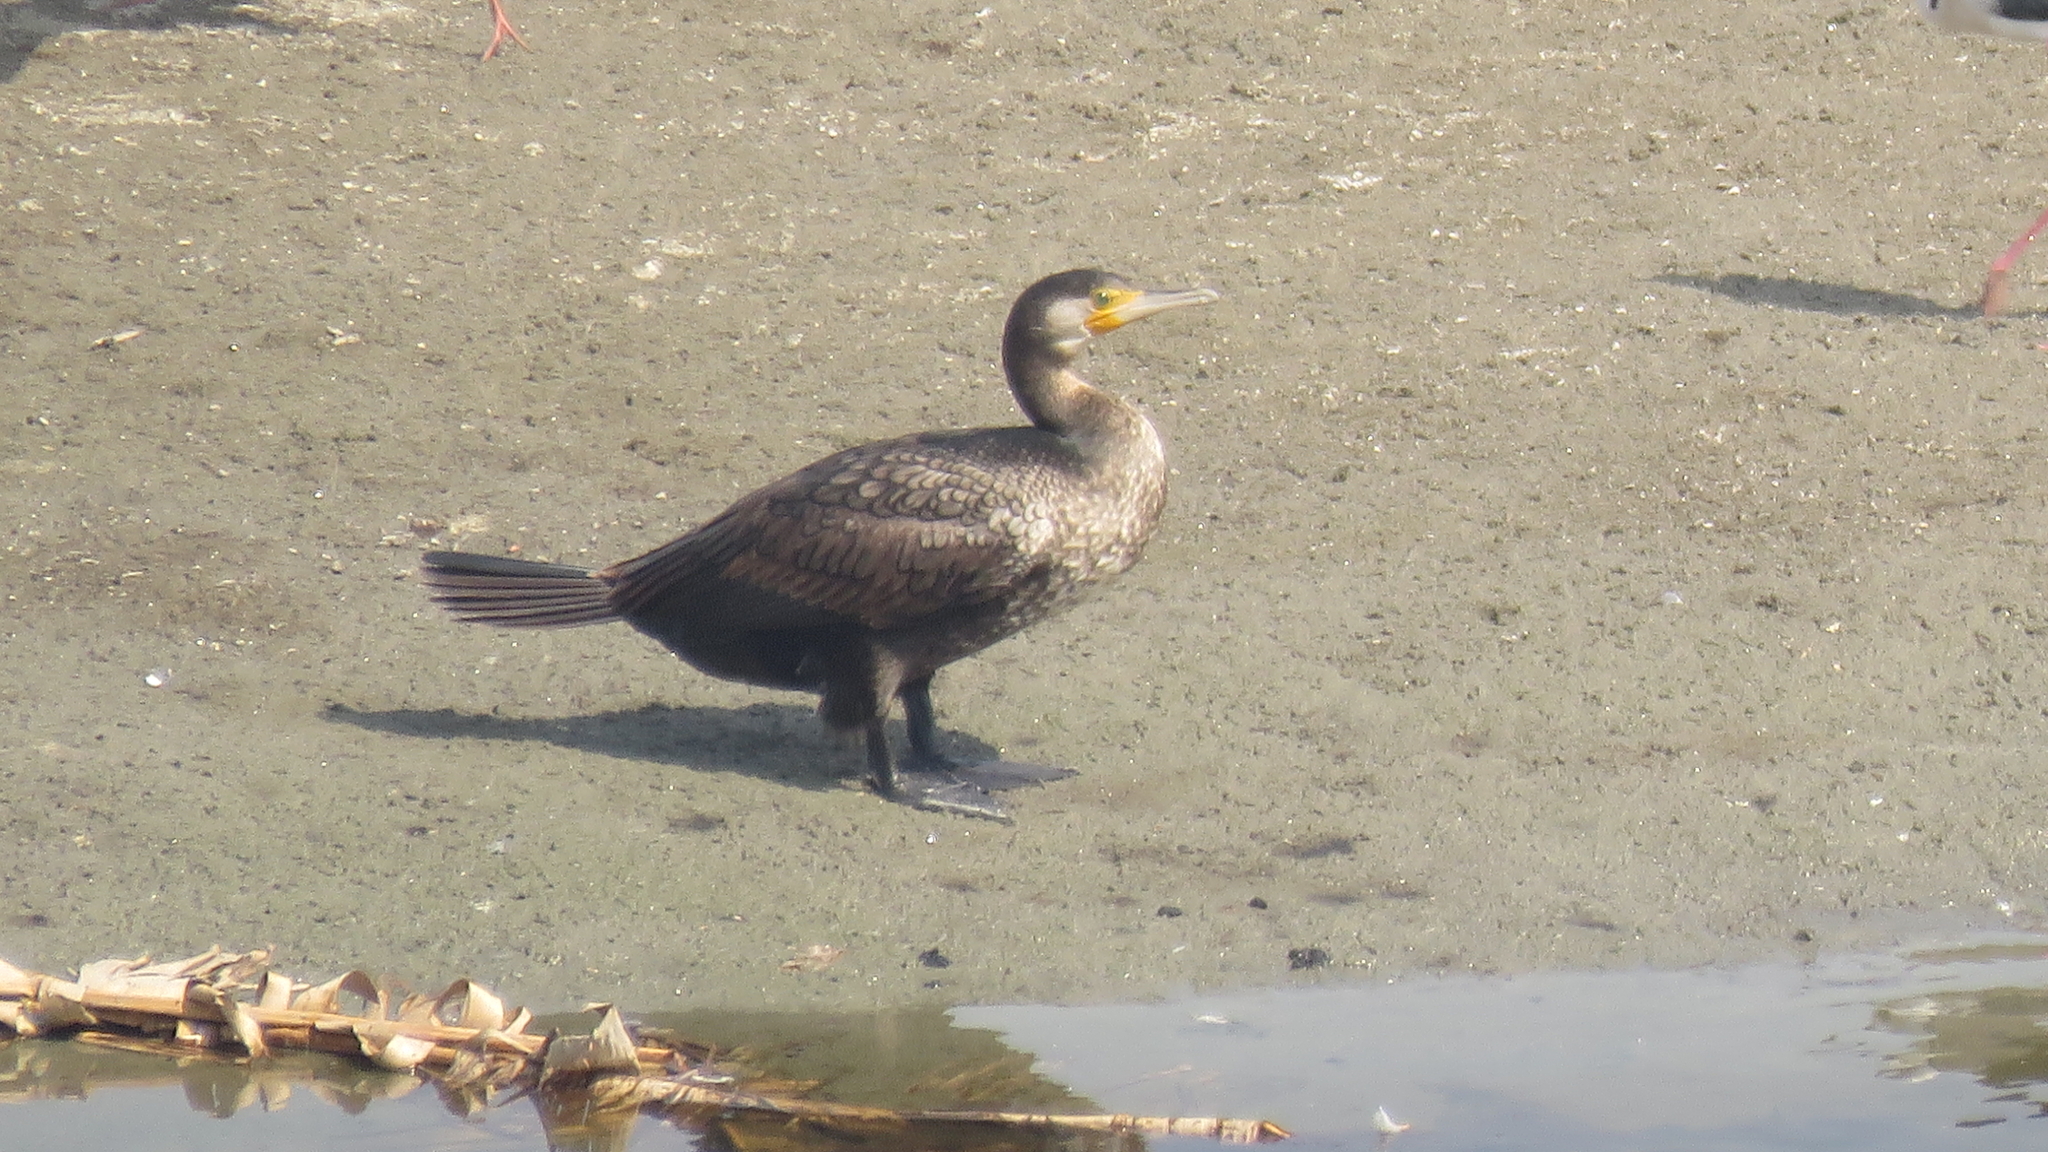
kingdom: Animalia
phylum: Chordata
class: Aves
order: Suliformes
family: Phalacrocoracidae
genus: Phalacrocorax
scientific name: Phalacrocorax carbo
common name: Great cormorant
